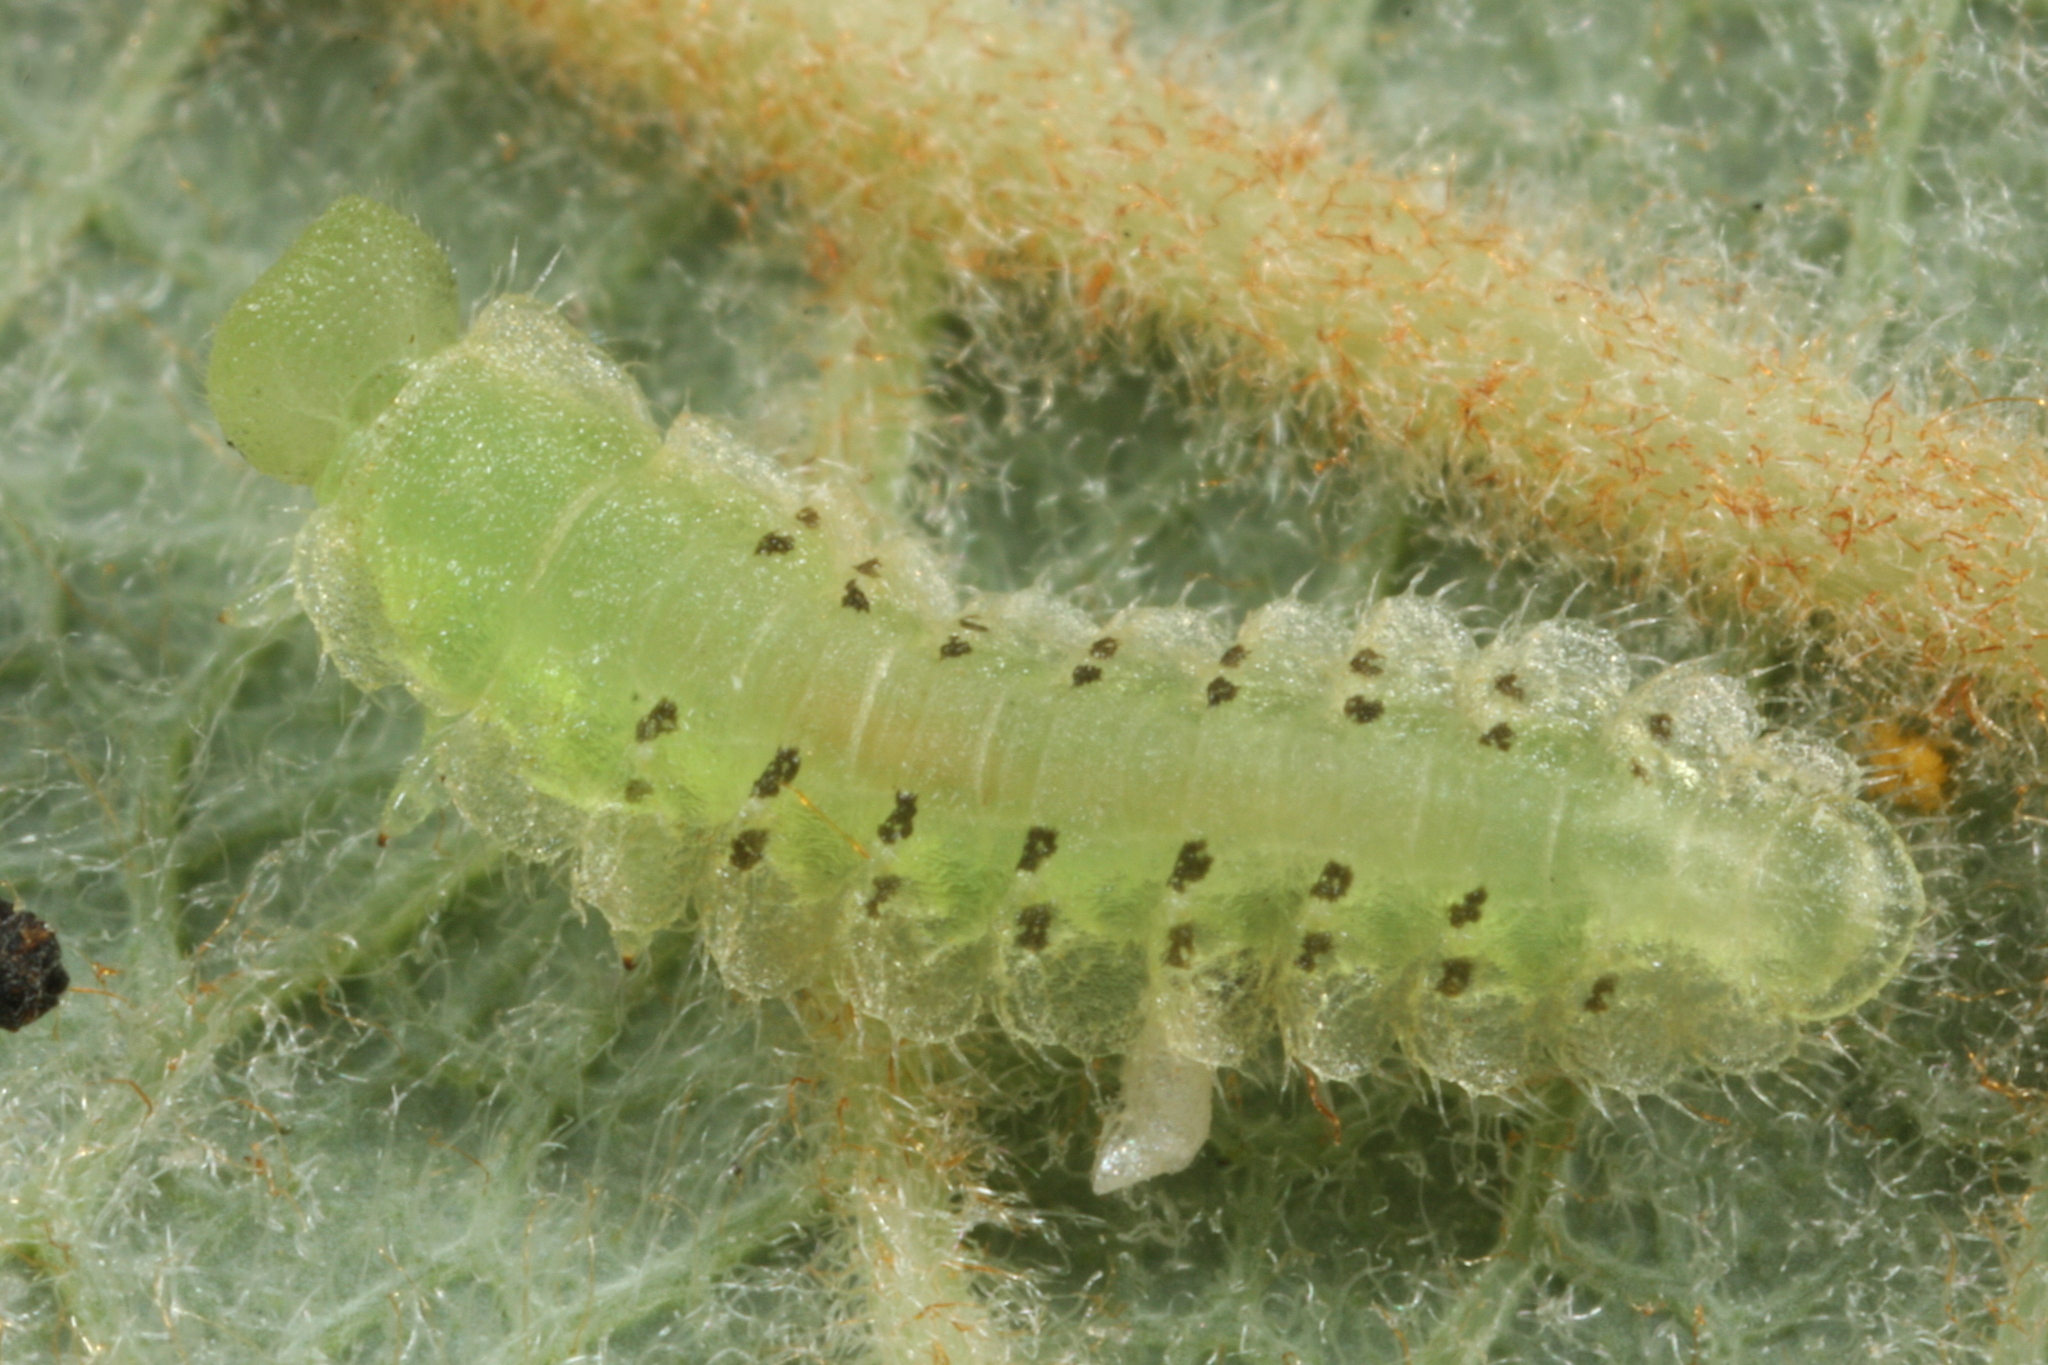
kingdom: Animalia
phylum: Arthropoda
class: Insecta
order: Hymenoptera
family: Tenthredinidae
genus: Platycampus
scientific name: Platycampus luridiventris
